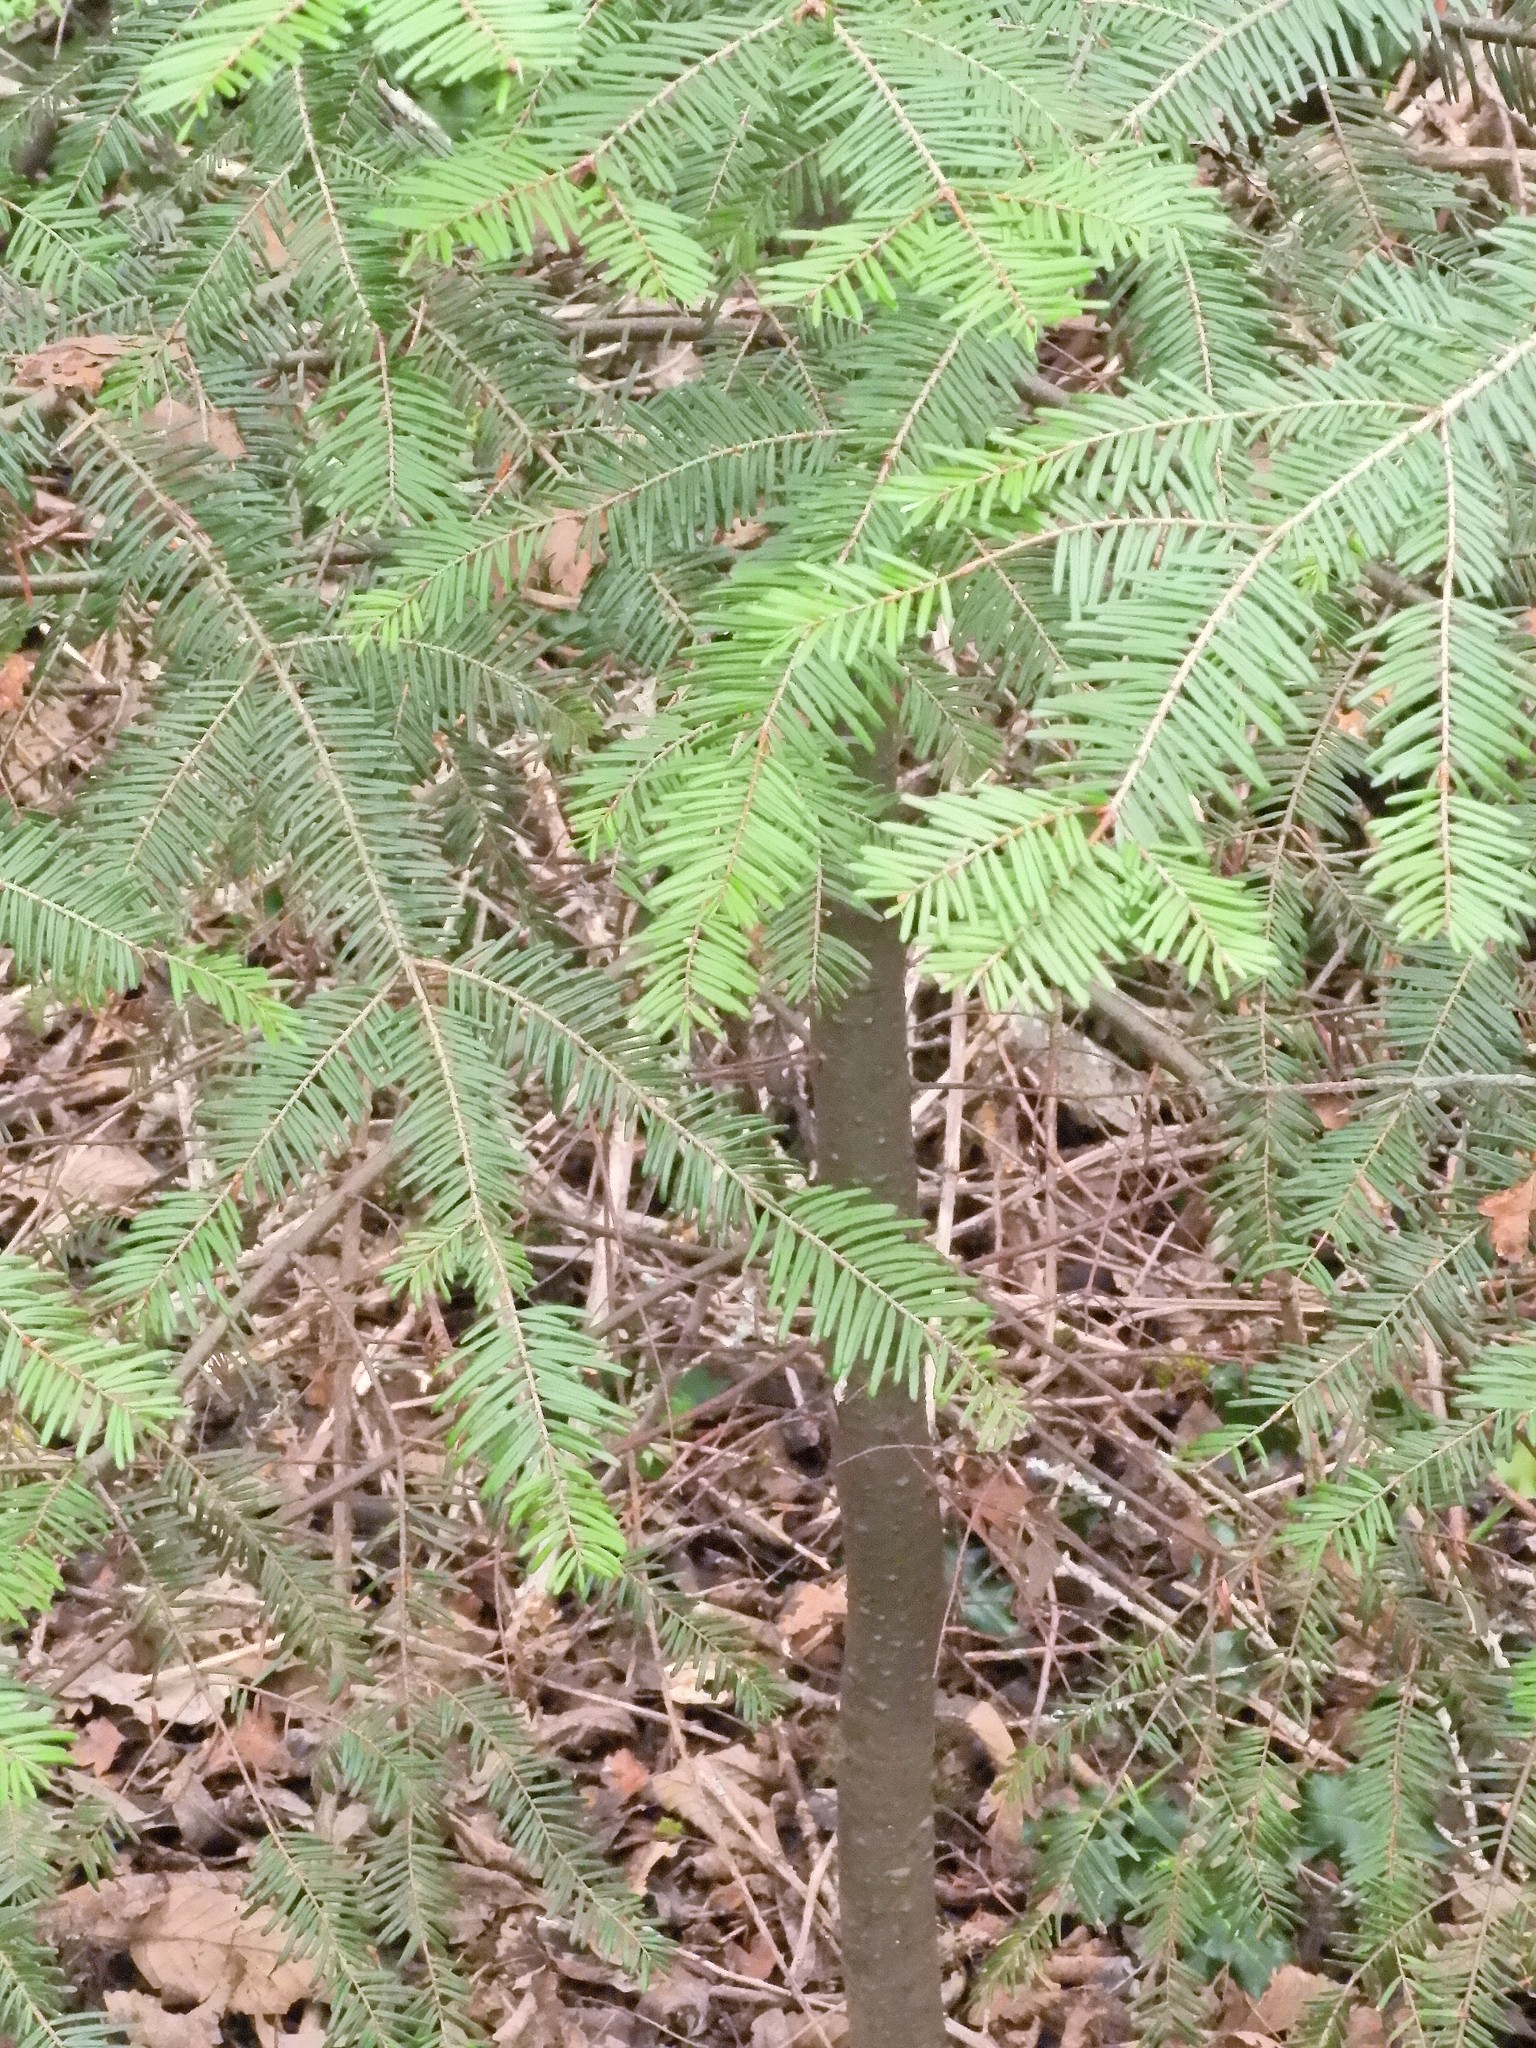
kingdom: Plantae
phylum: Tracheophyta
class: Pinopsida
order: Pinales
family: Pinaceae
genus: Abies
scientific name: Abies grandis
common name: Giant fir
